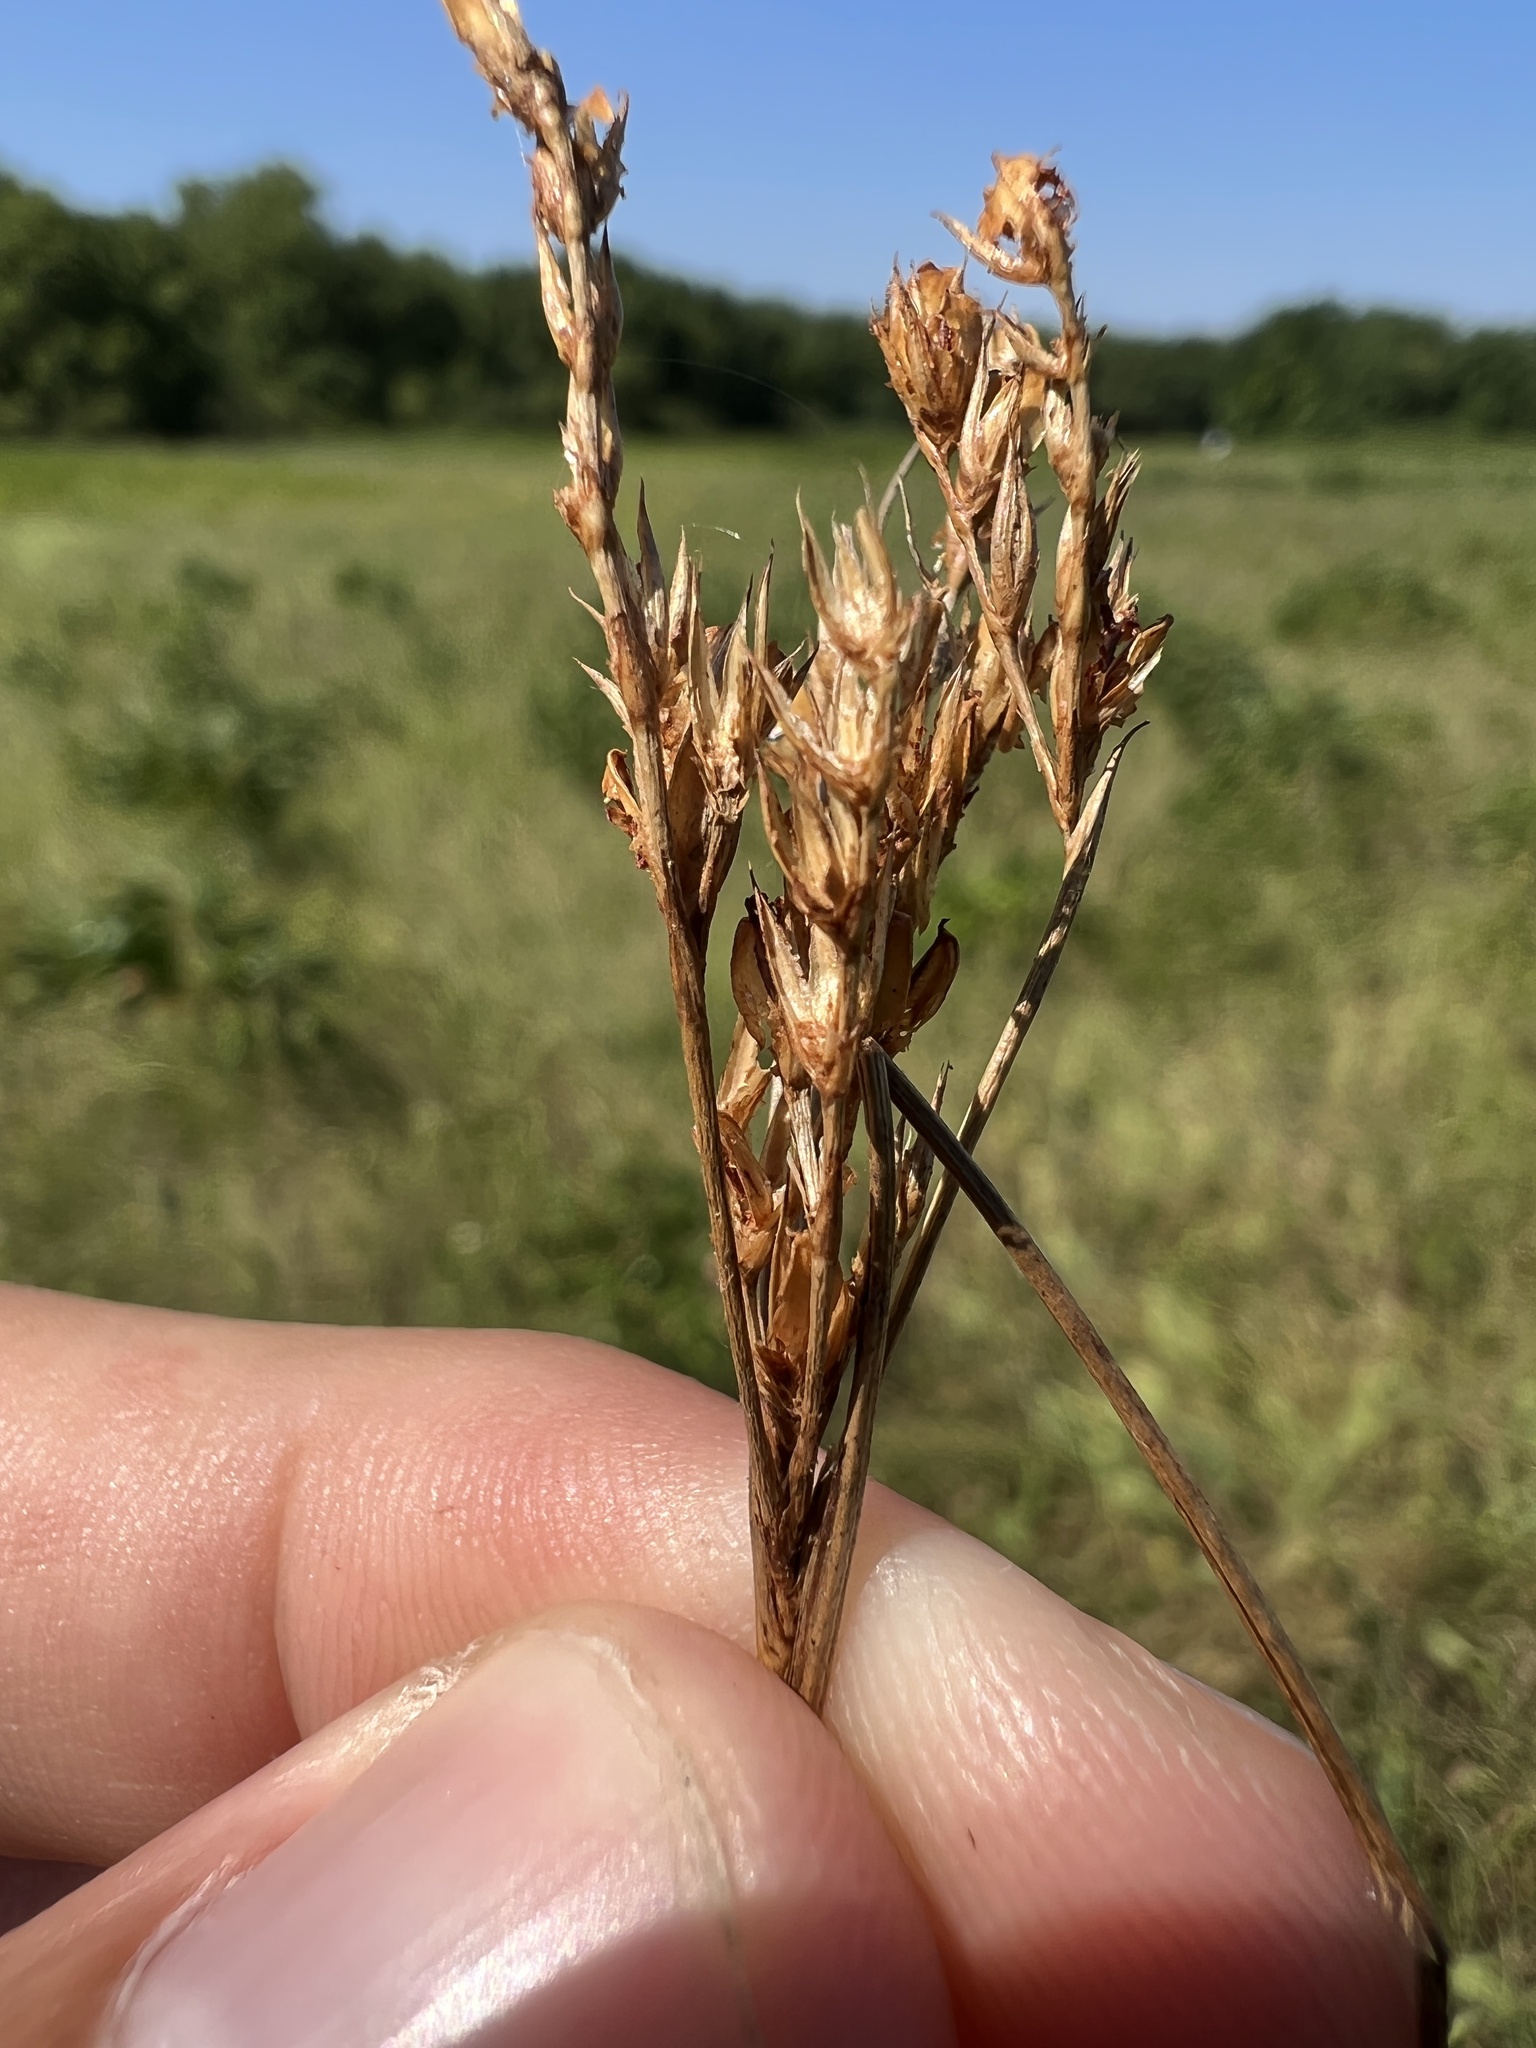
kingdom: Plantae
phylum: Tracheophyta
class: Liliopsida
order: Poales
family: Juncaceae
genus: Juncus
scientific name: Juncus brachyphyllus
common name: Tufted-stem rush
